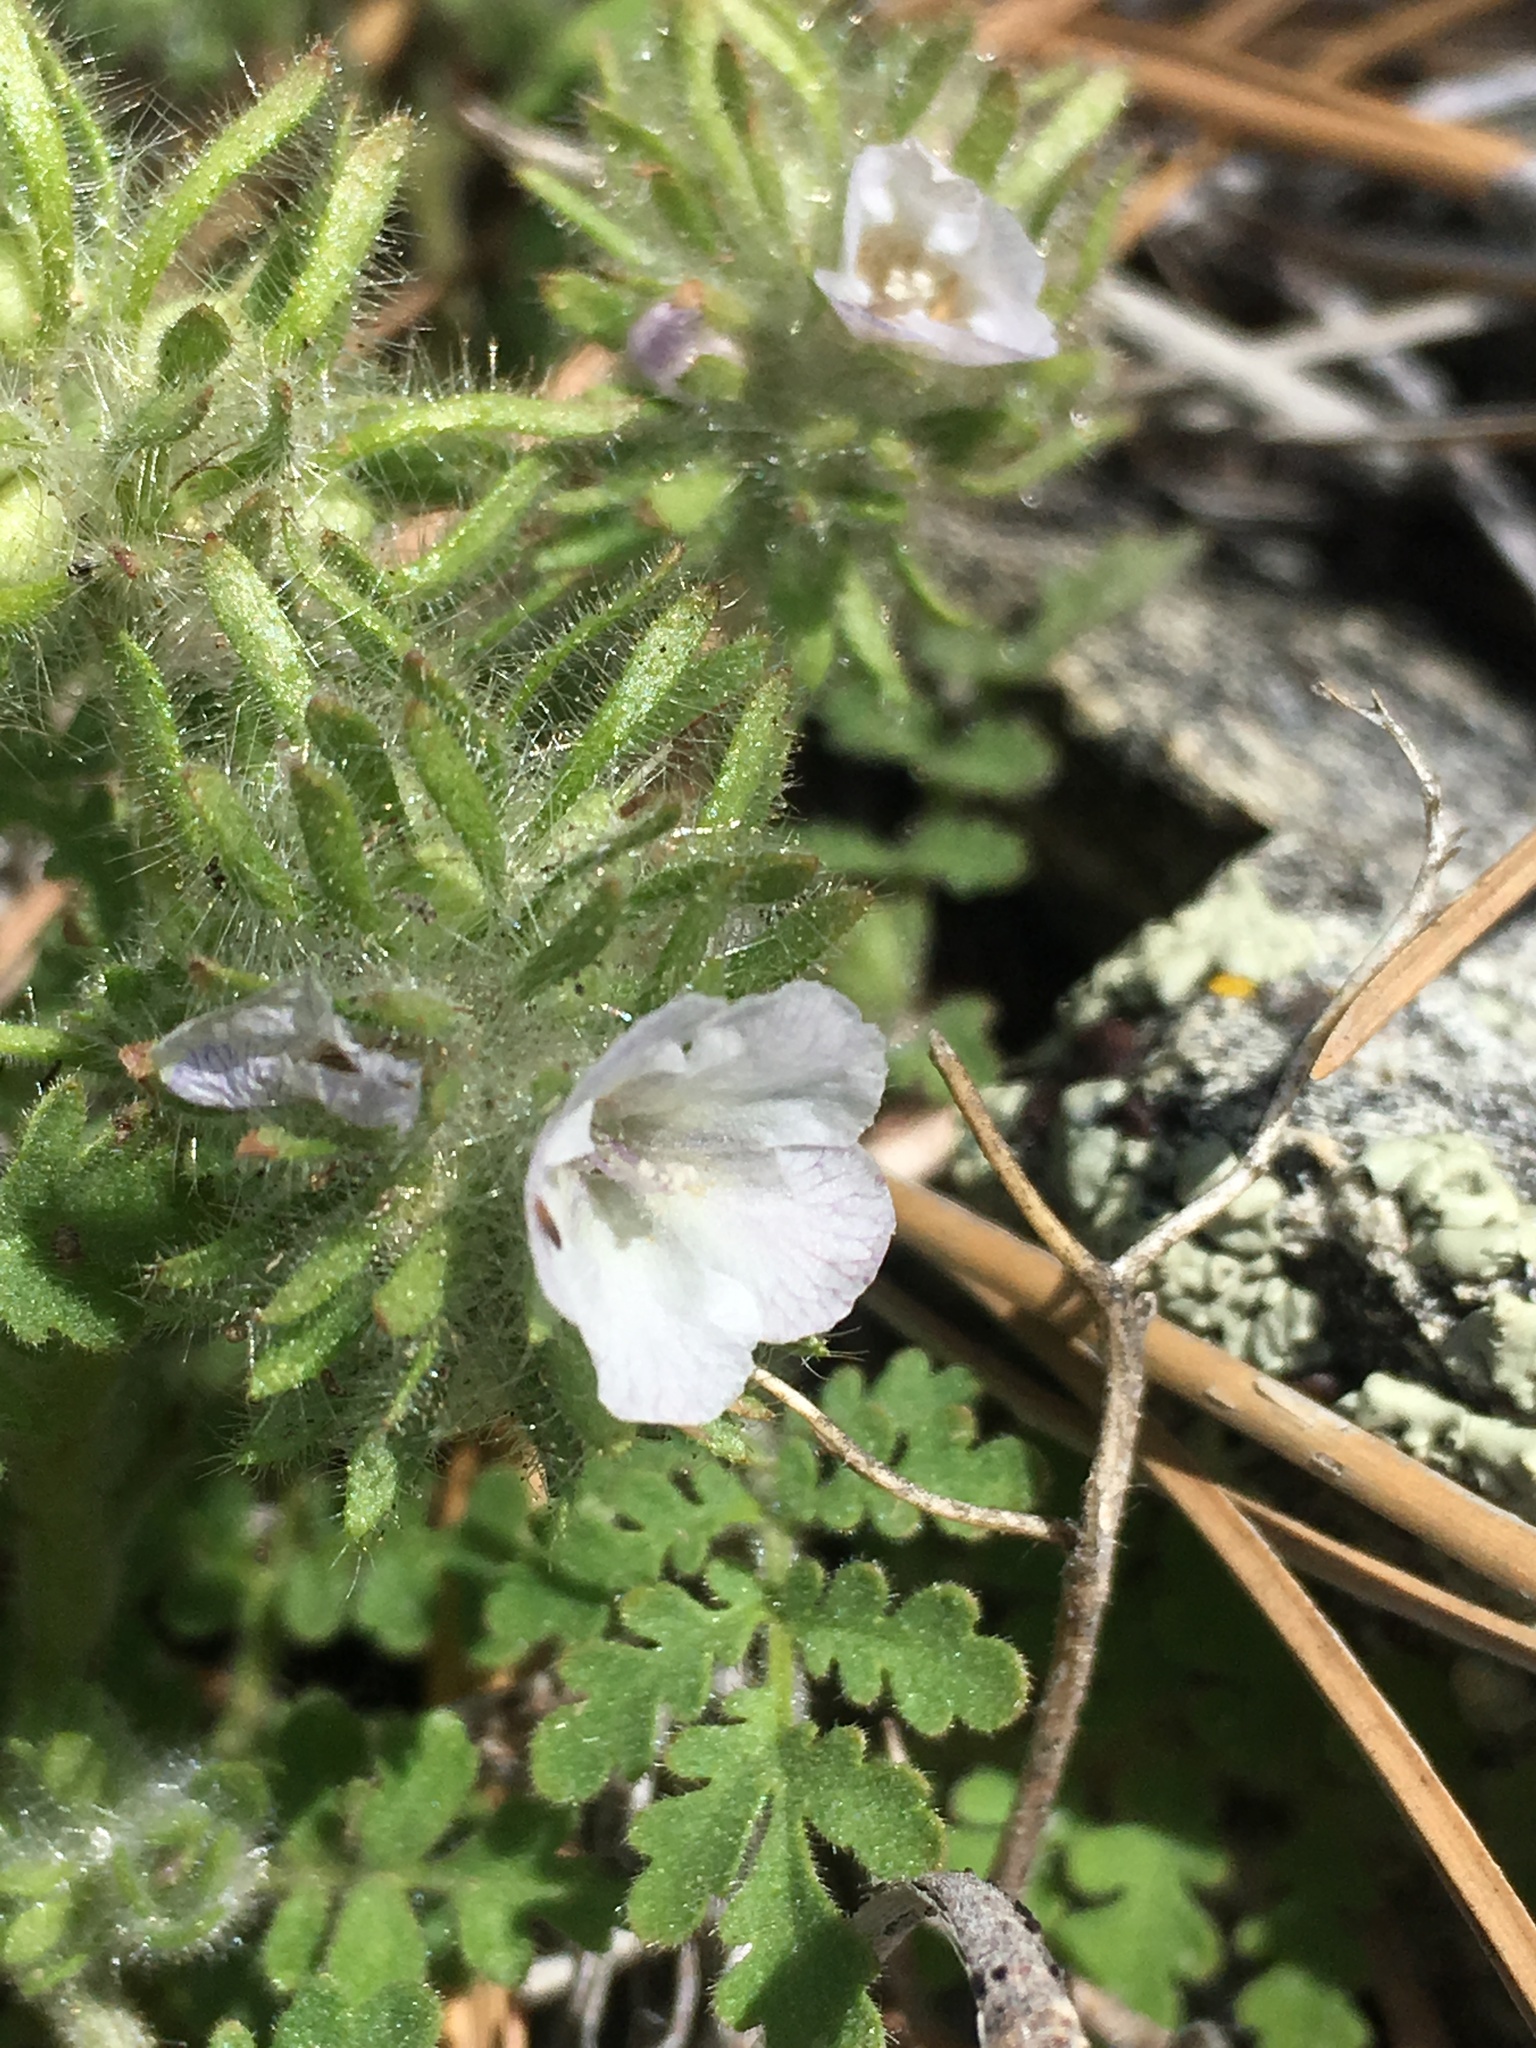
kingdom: Plantae
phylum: Tracheophyta
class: Magnoliopsida
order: Boraginales
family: Hydrophyllaceae
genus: Phacelia
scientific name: Phacelia cryptantha
